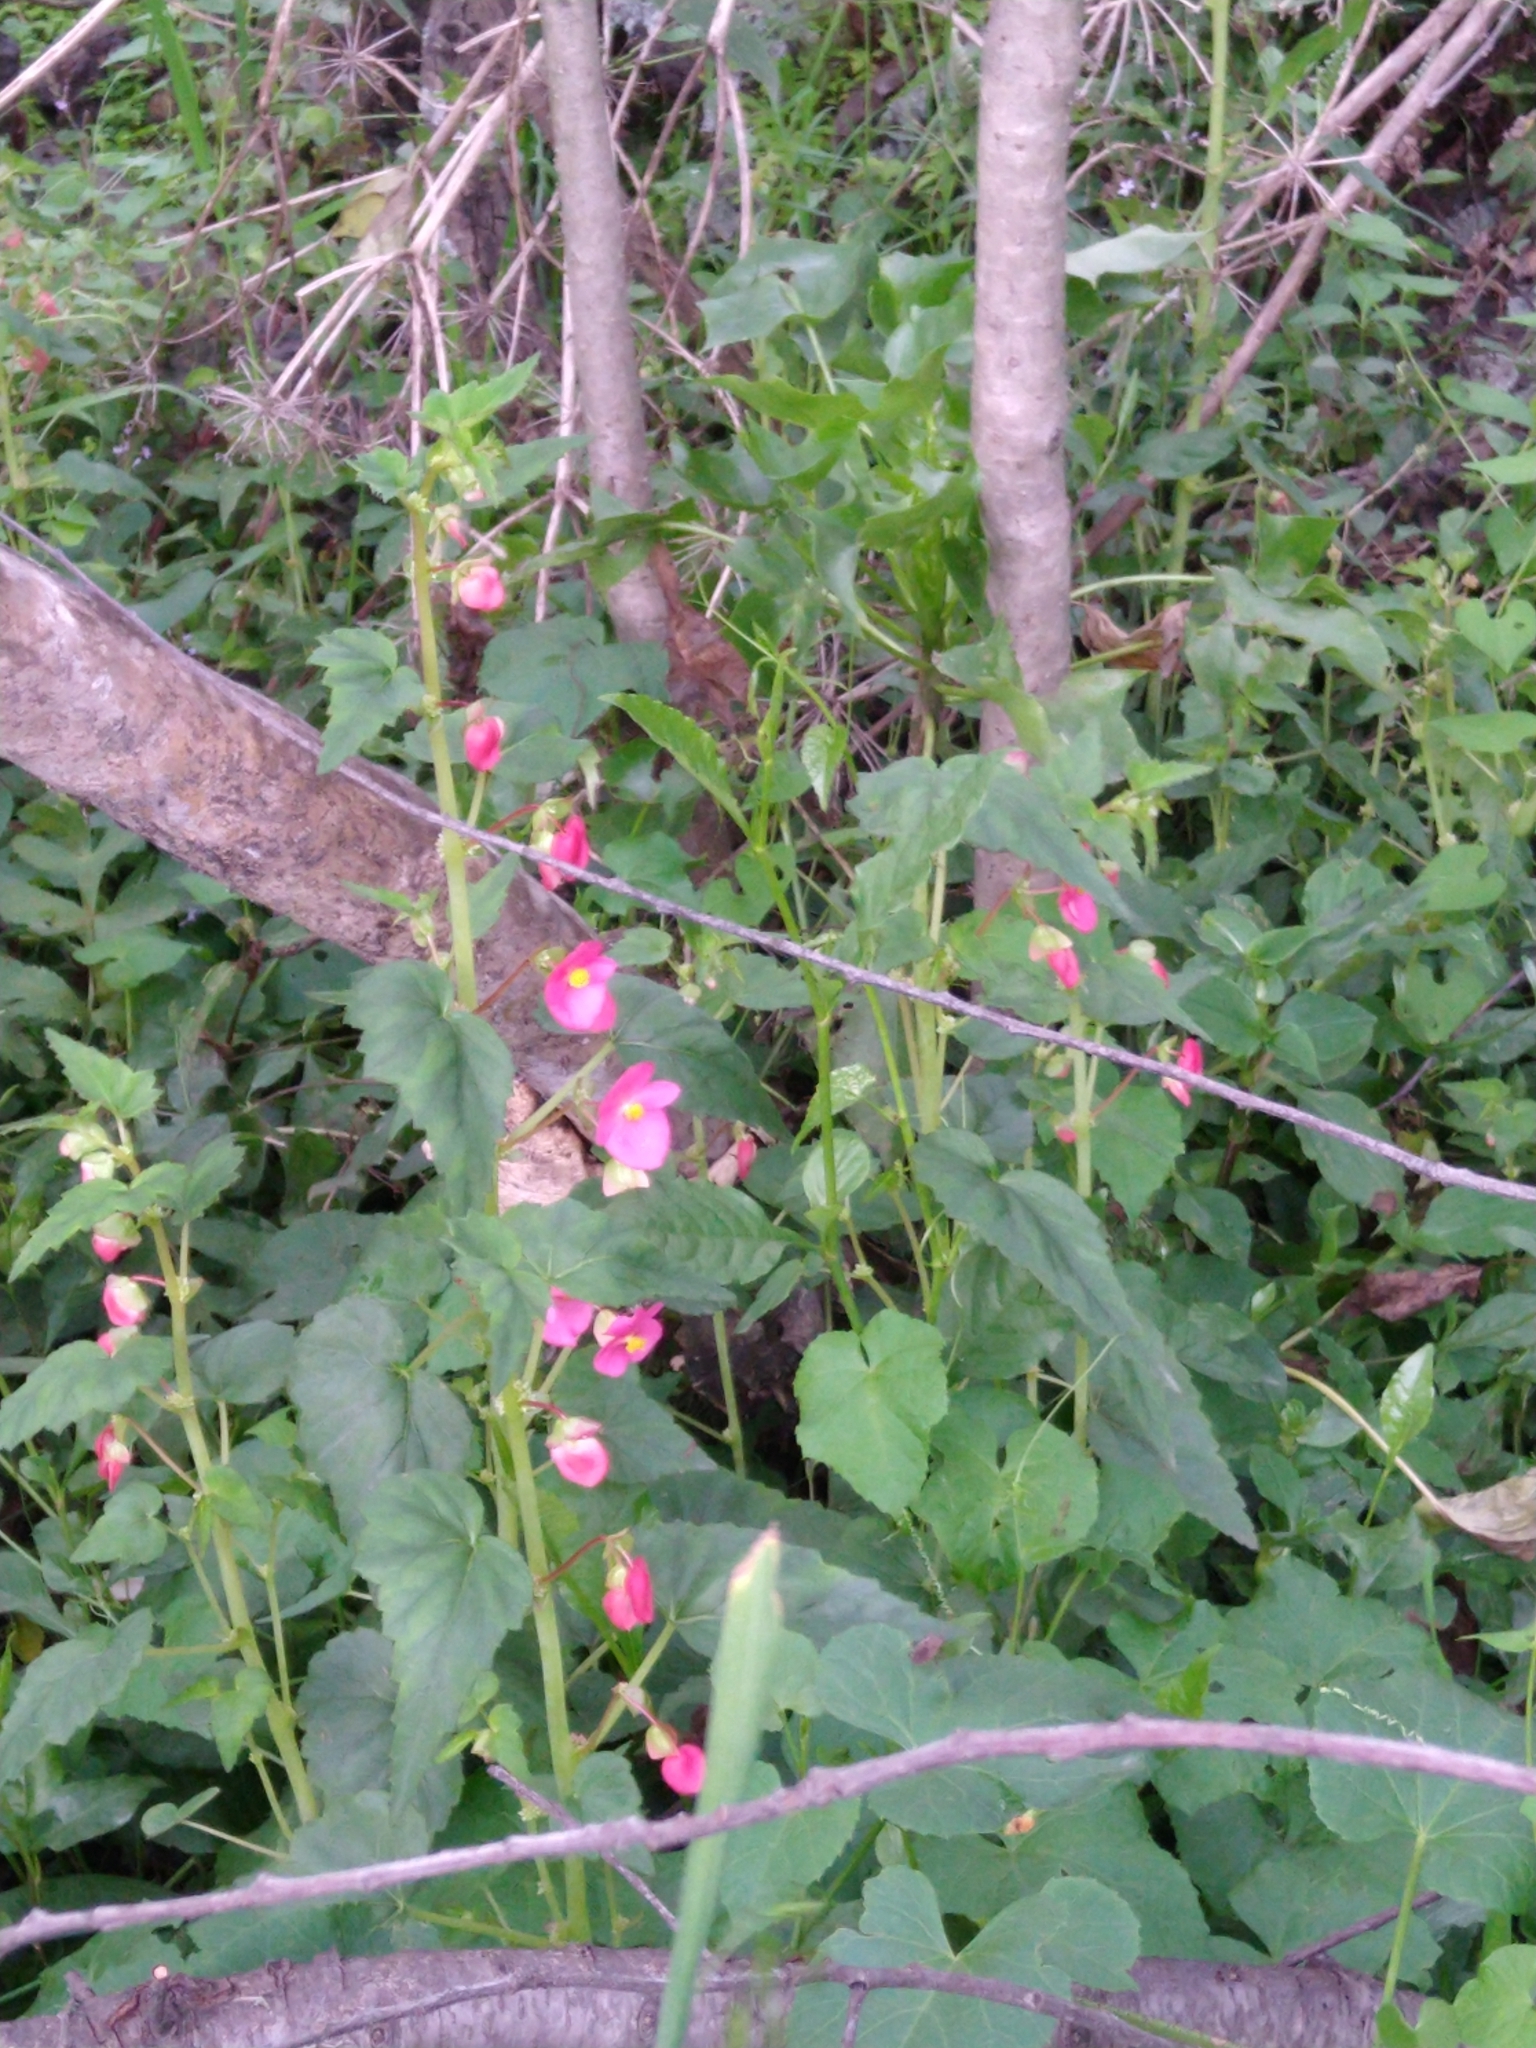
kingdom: Plantae
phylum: Tracheophyta
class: Magnoliopsida
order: Cucurbitales
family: Begoniaceae
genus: Begonia
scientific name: Begonia gracilis
